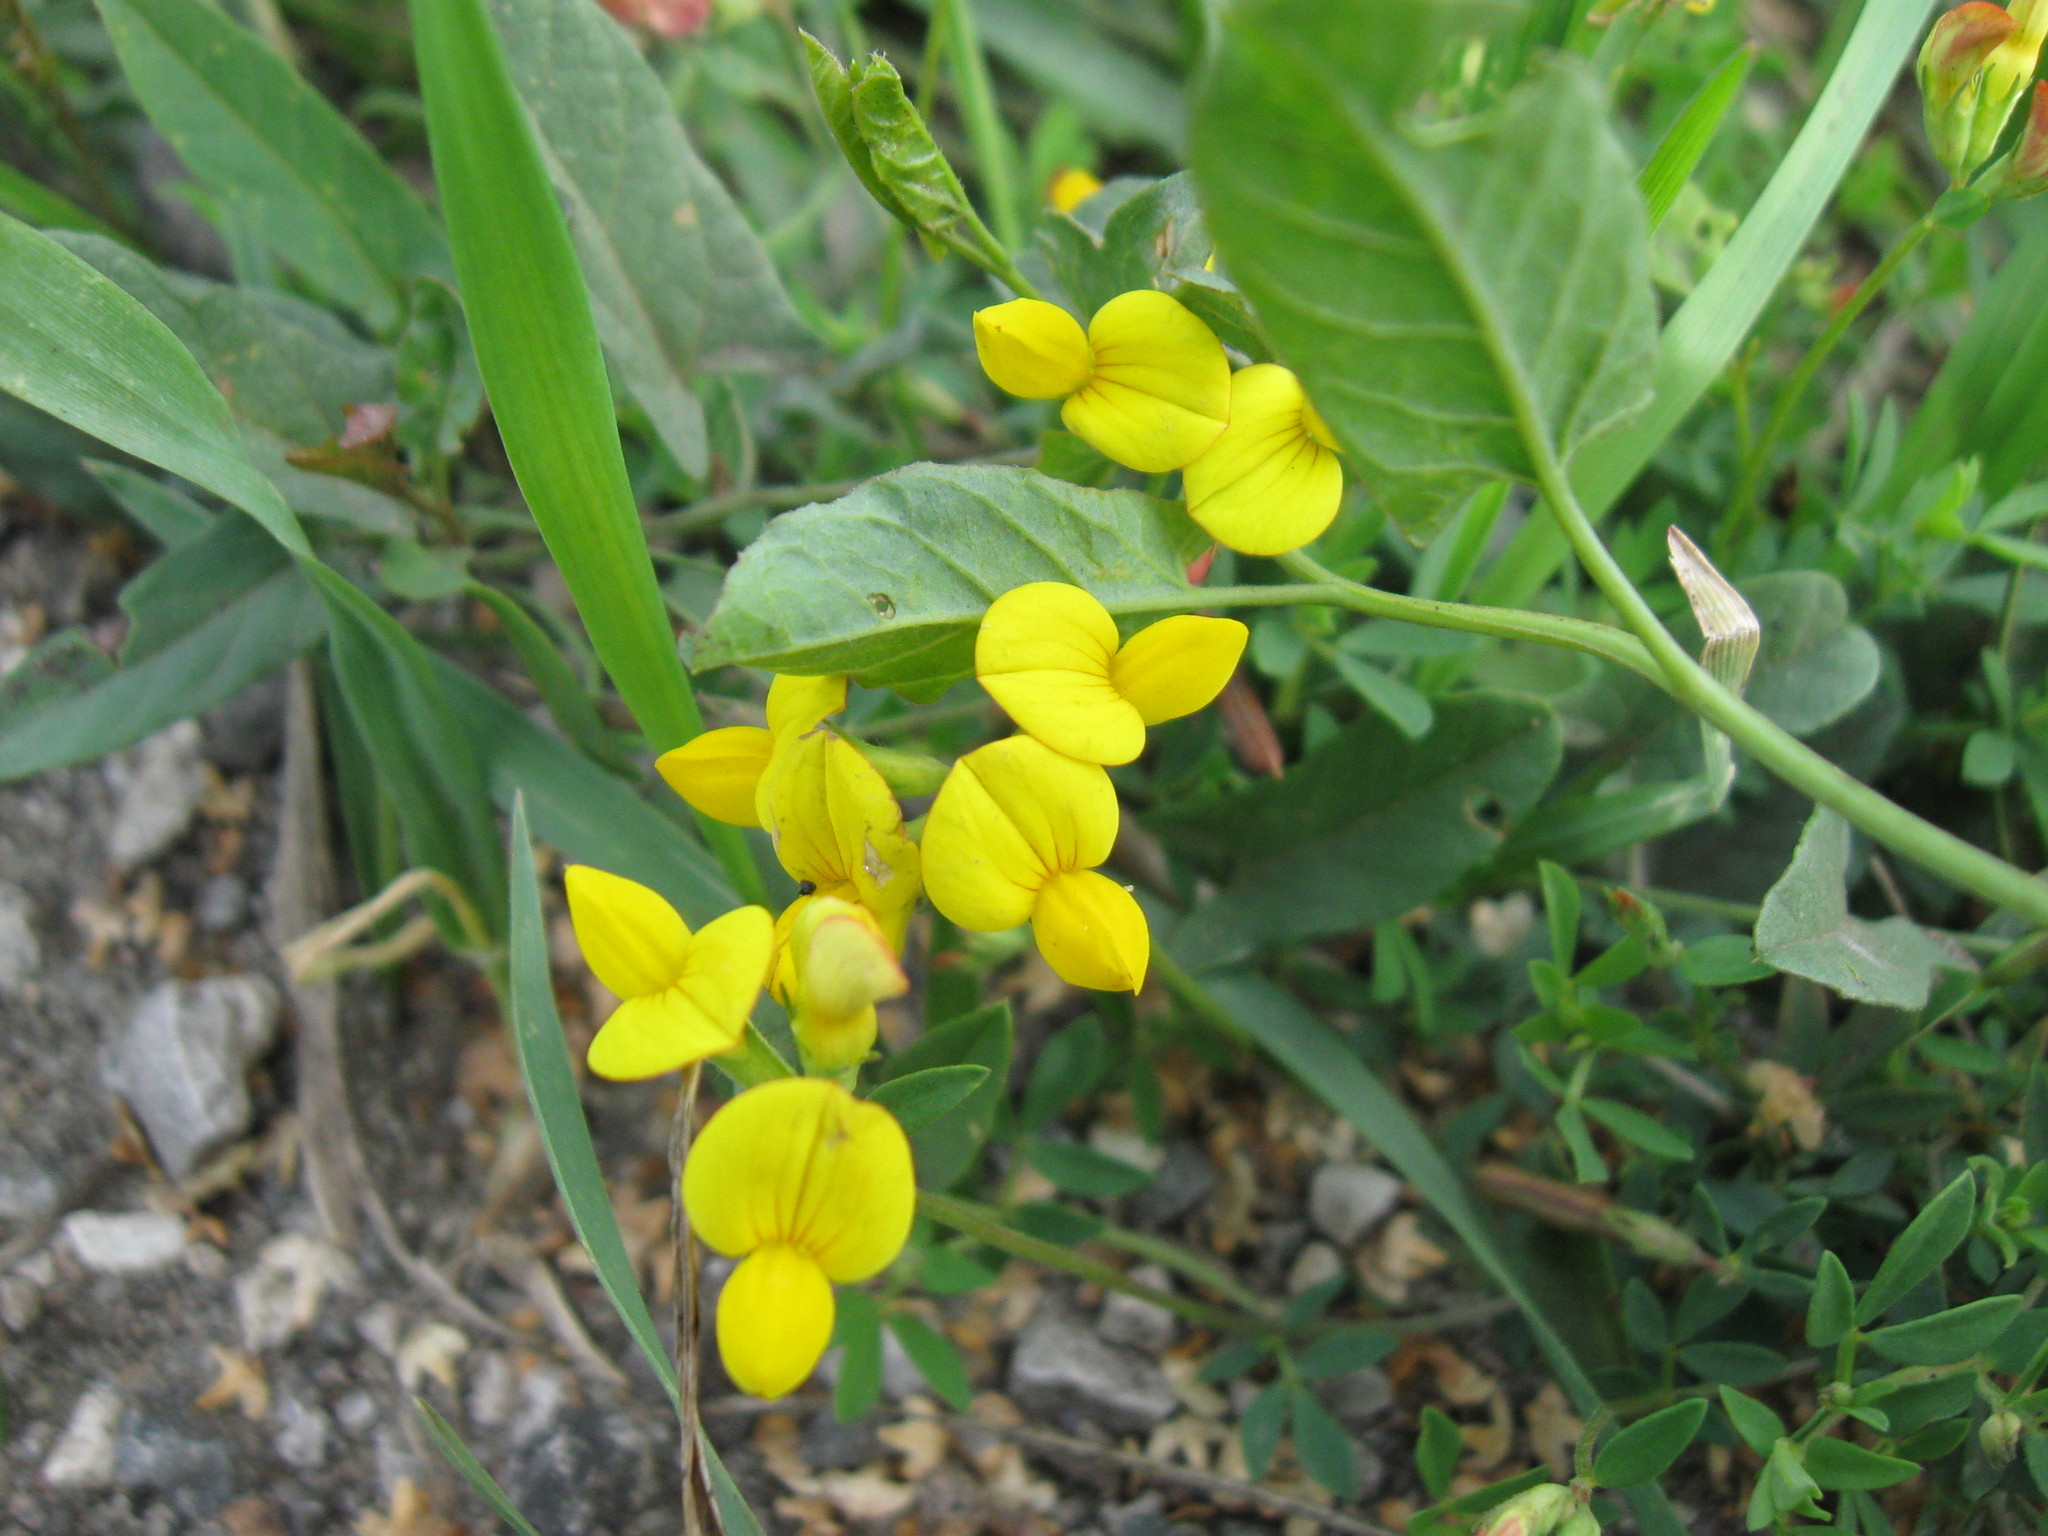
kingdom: Plantae
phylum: Tracheophyta
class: Magnoliopsida
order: Fabales
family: Fabaceae
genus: Lotus
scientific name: Lotus corniculatus
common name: Common bird's-foot-trefoil
